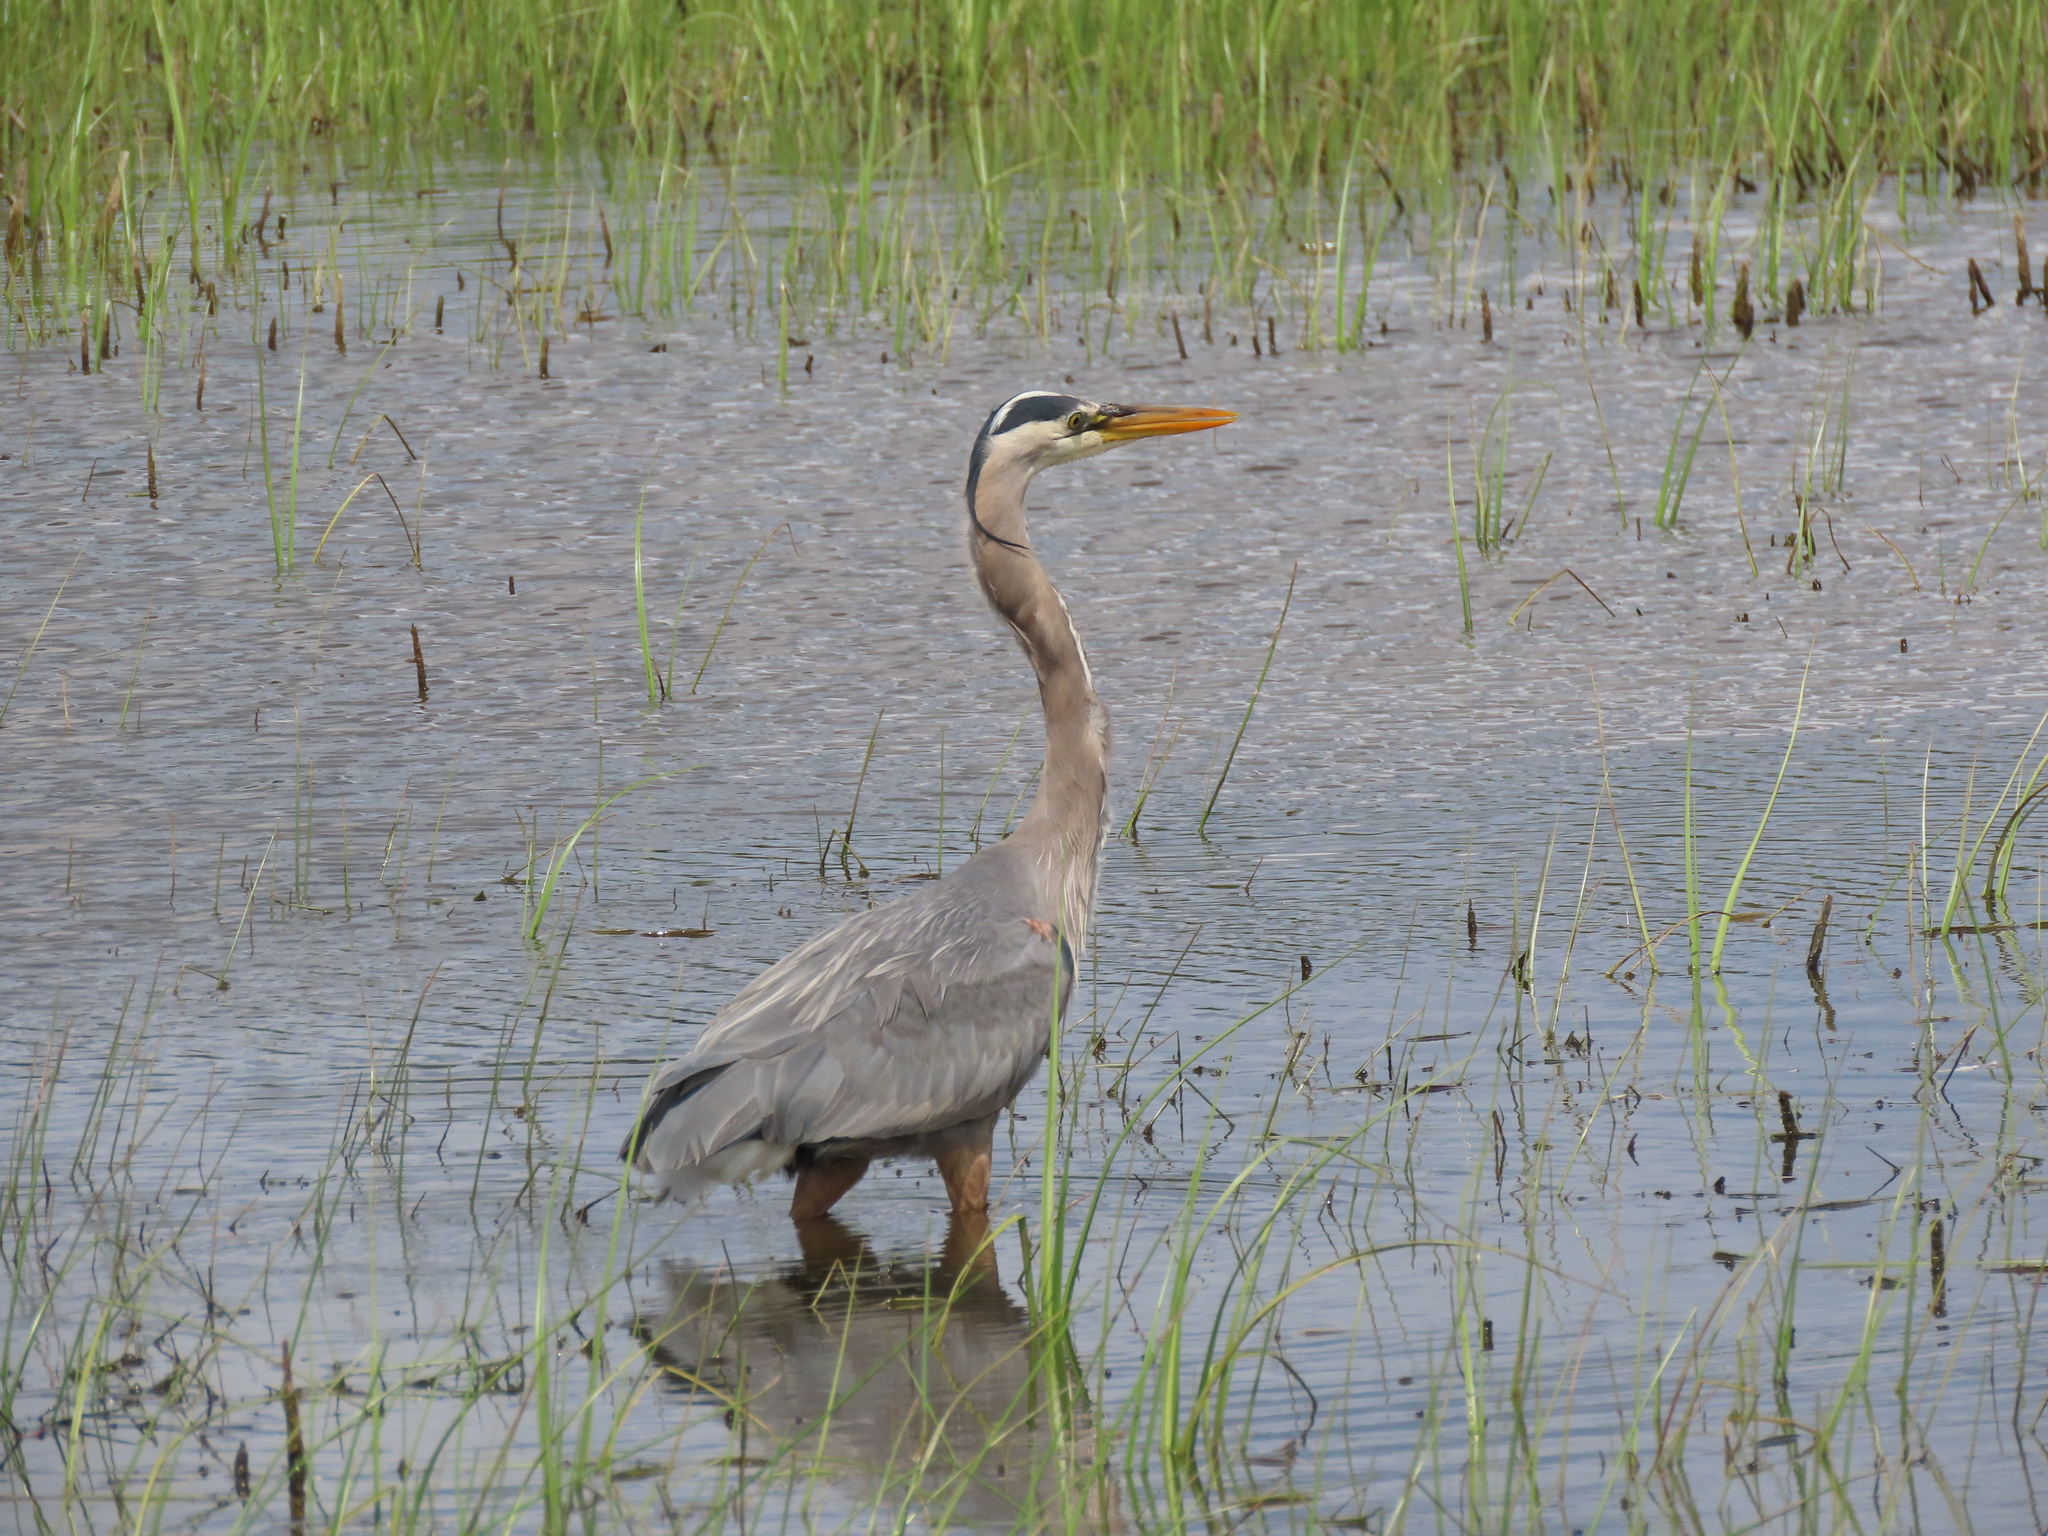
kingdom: Animalia
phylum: Chordata
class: Aves
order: Pelecaniformes
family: Ardeidae
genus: Ardea
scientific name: Ardea herodias
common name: Great blue heron
